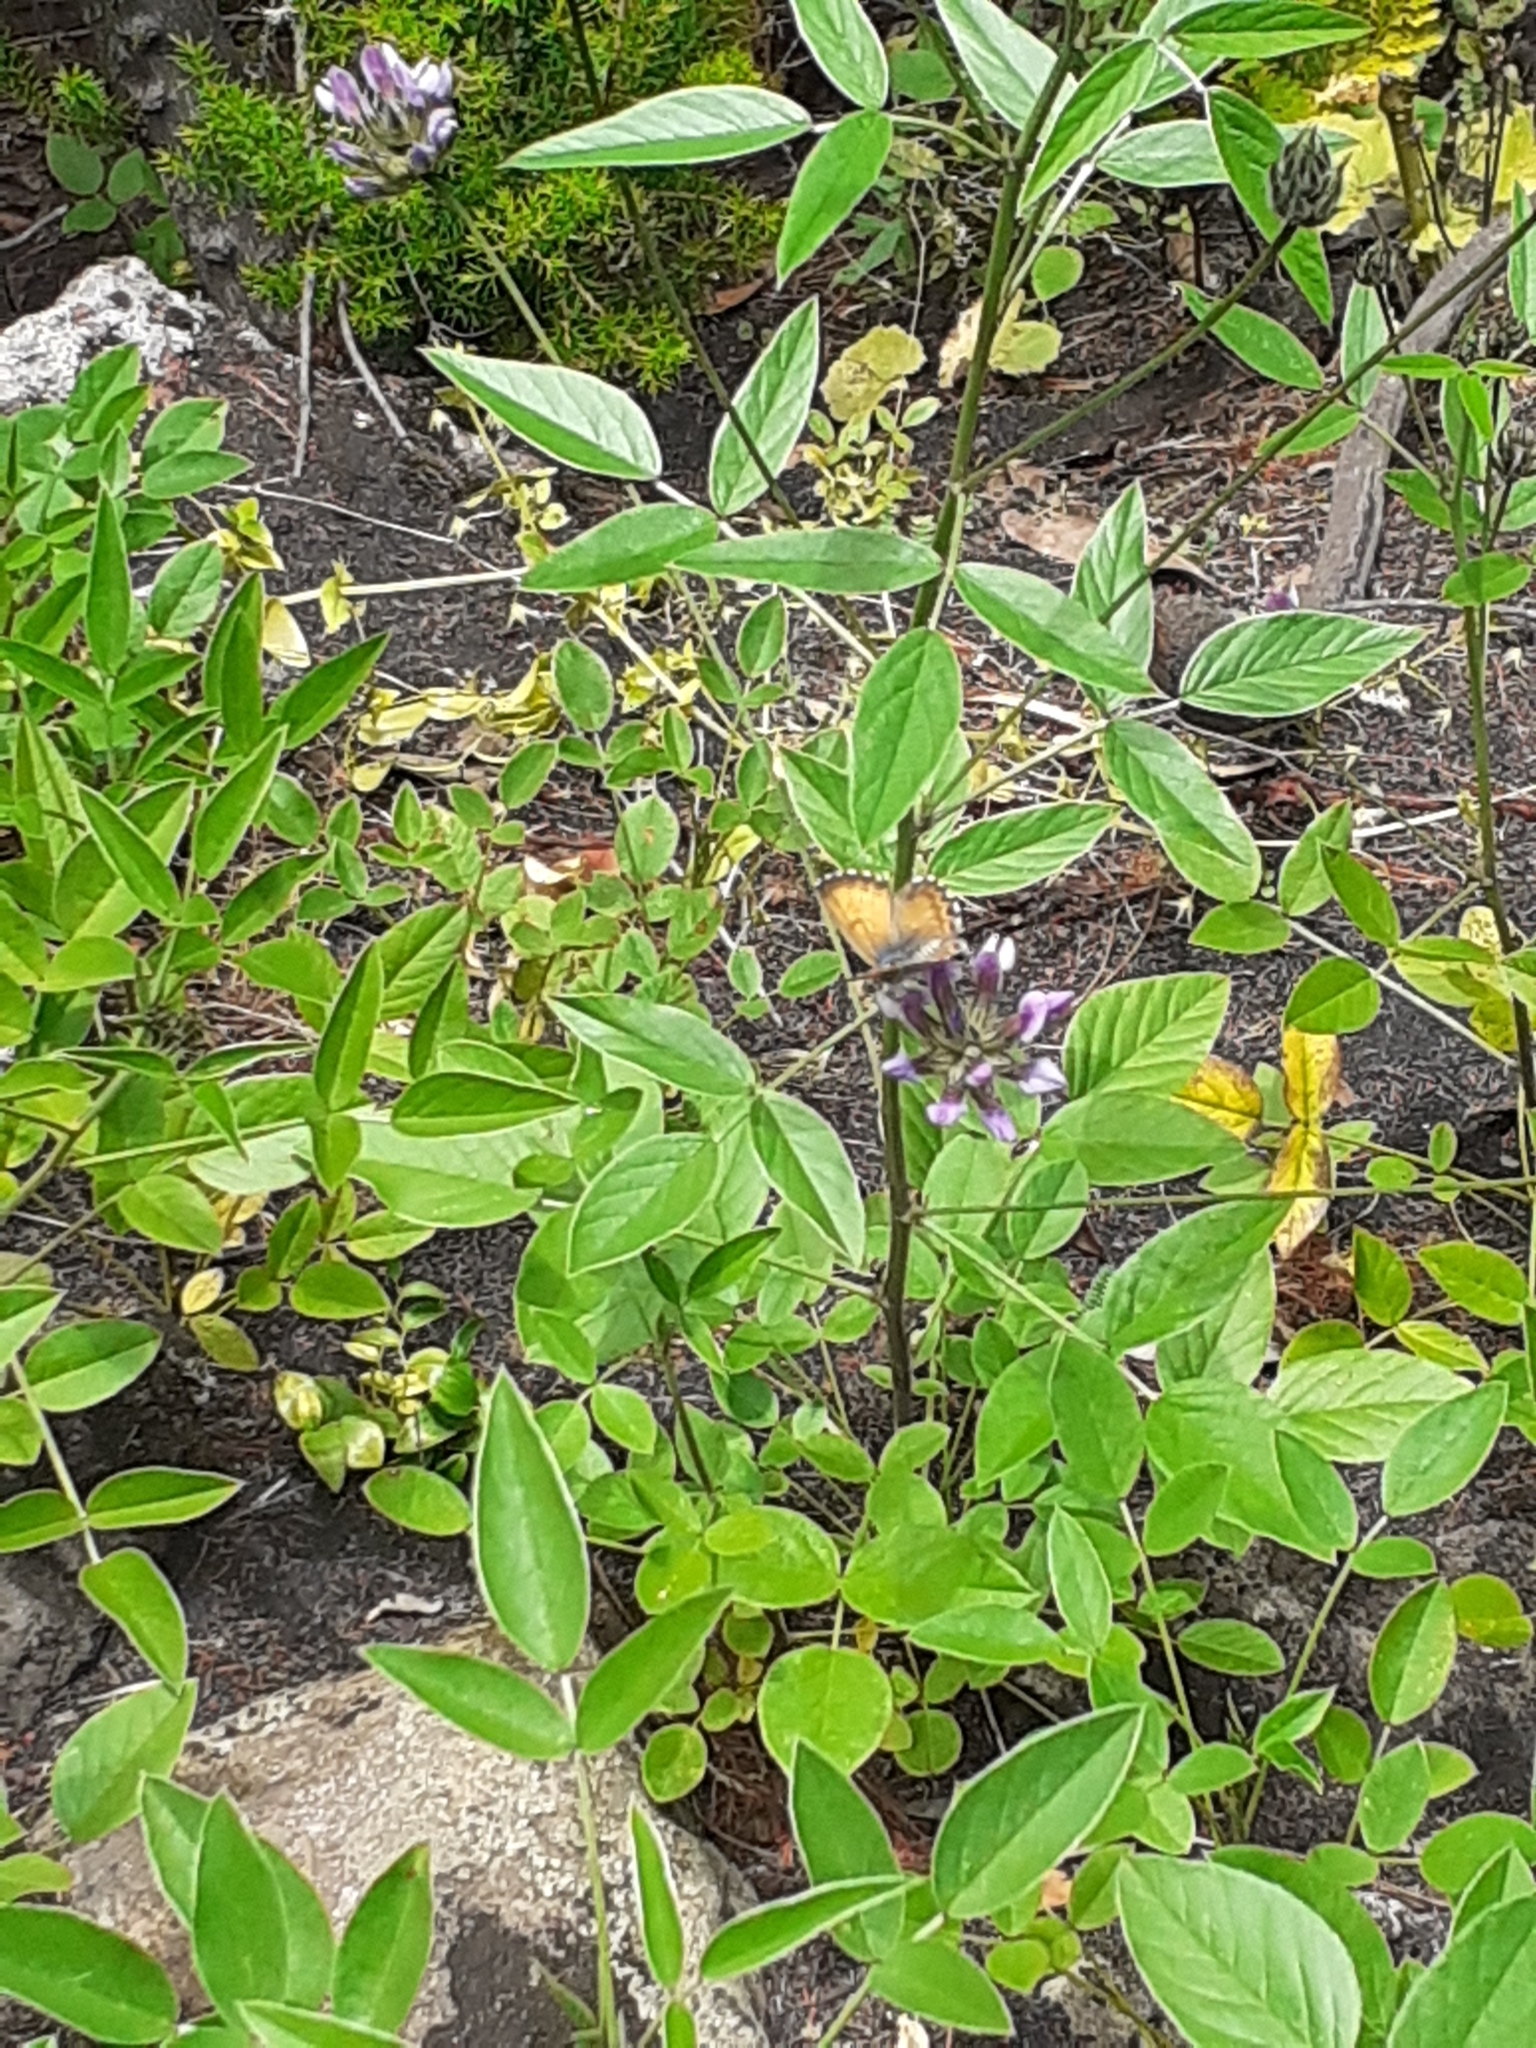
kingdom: Animalia
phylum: Arthropoda
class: Insecta
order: Lepidoptera
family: Lycaenidae
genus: Cyclyrius
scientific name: Cyclyrius webbianus
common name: Canary blue
